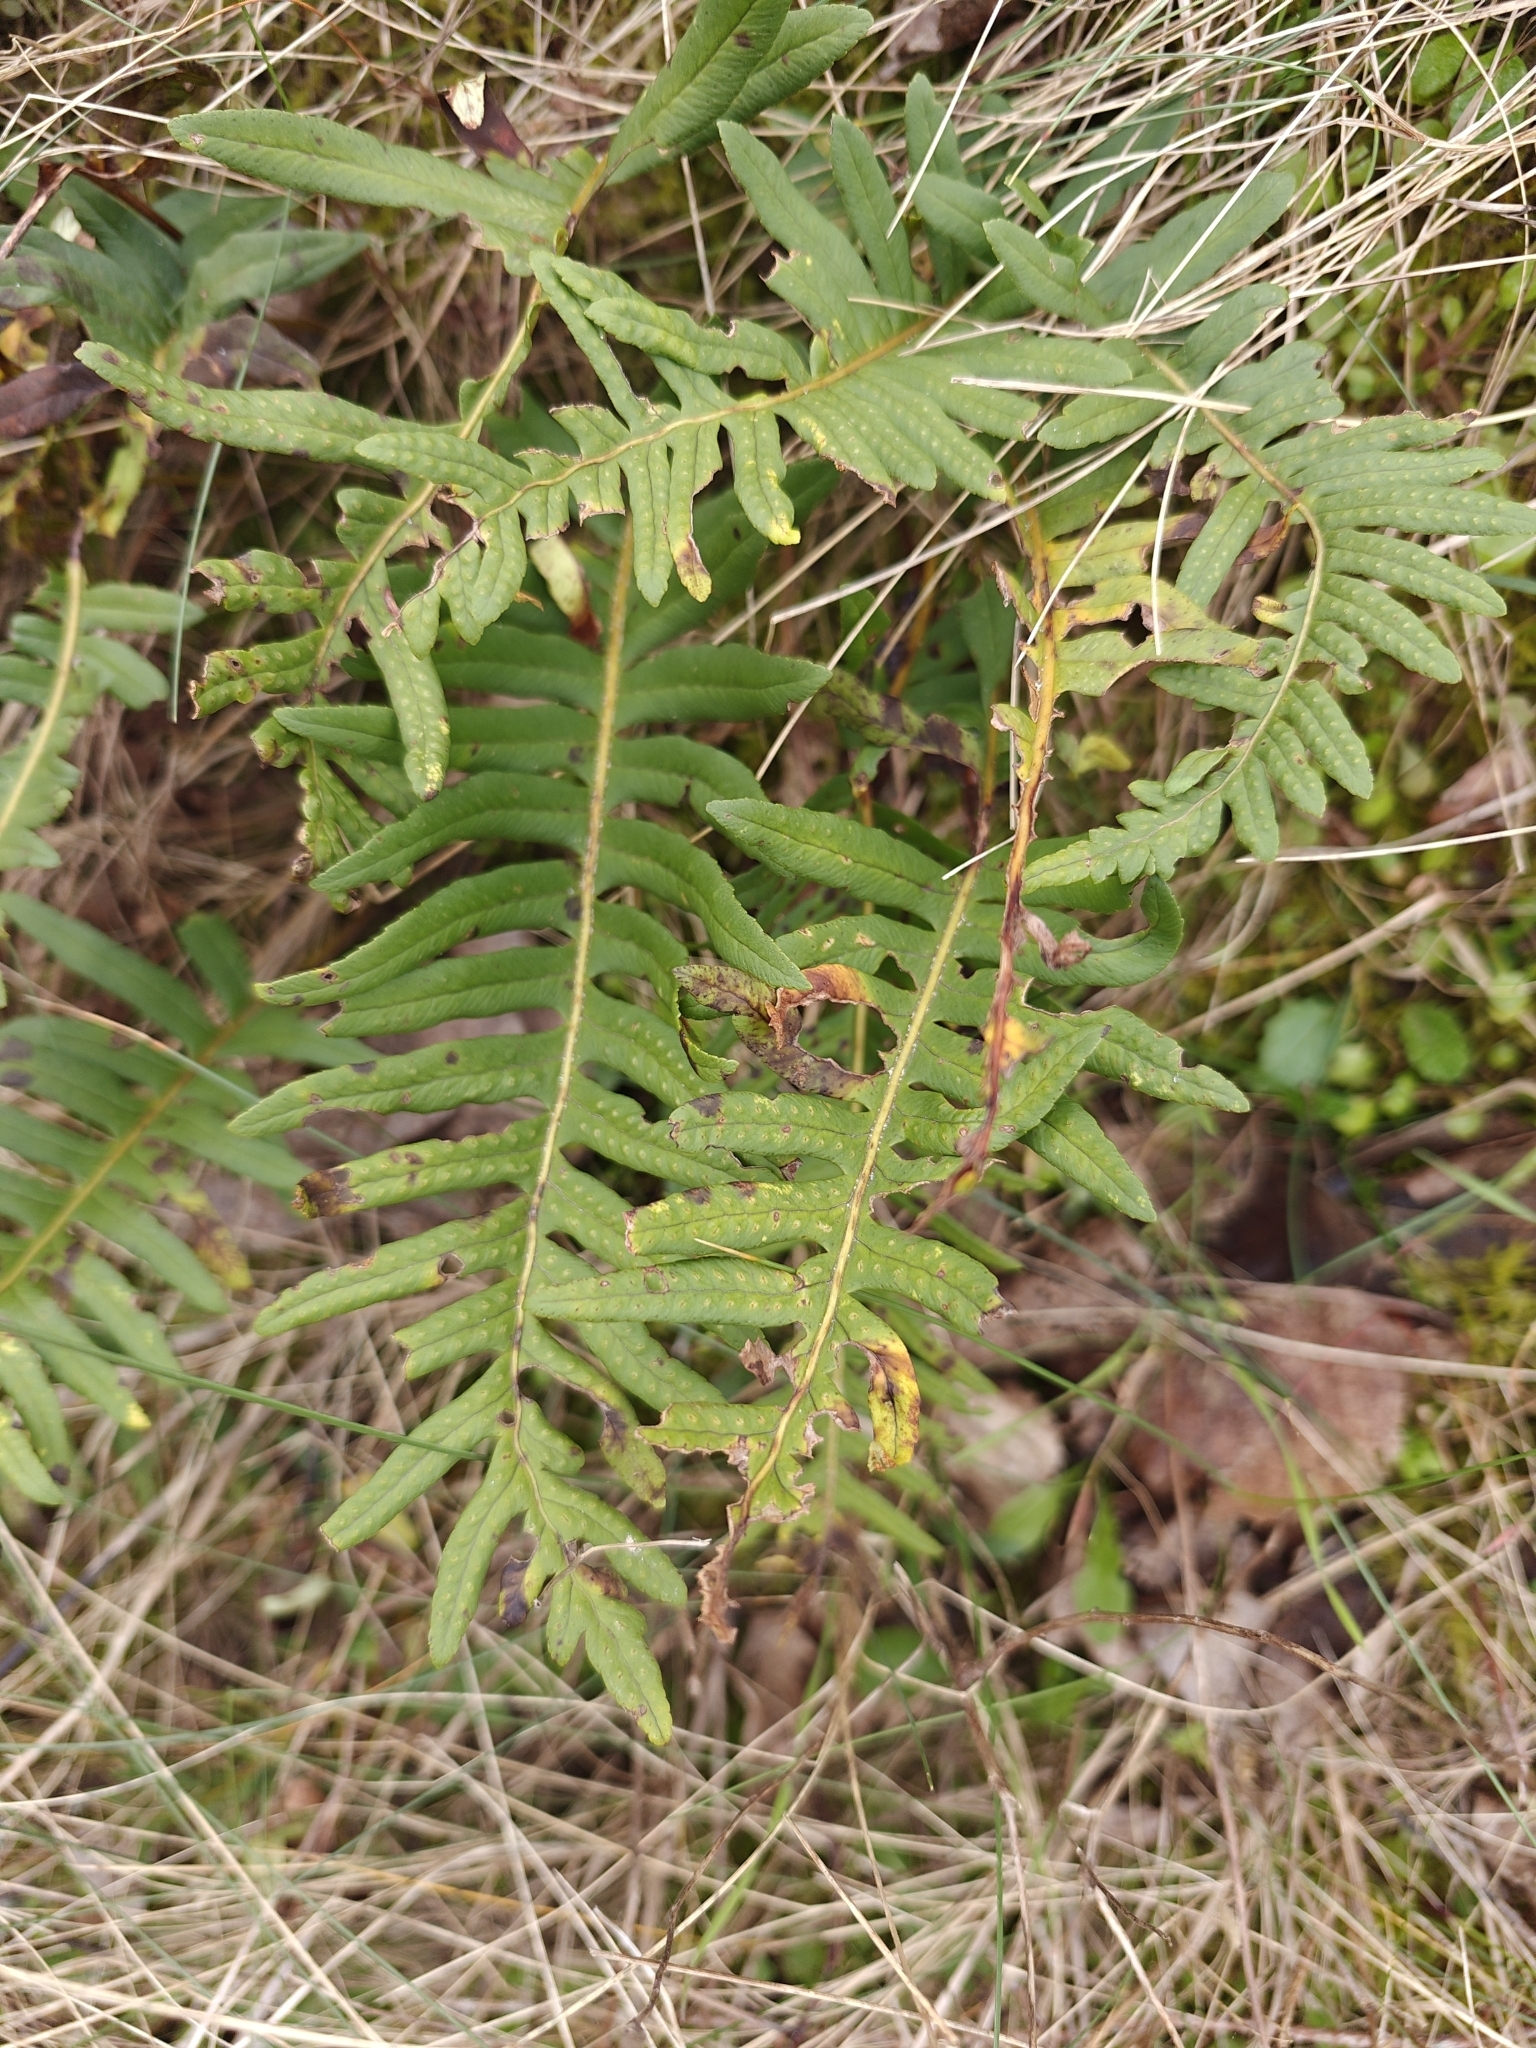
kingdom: Plantae
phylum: Tracheophyta
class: Polypodiopsida
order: Polypodiales
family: Polypodiaceae
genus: Polypodium
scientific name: Polypodium vulgare
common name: Common polypody
